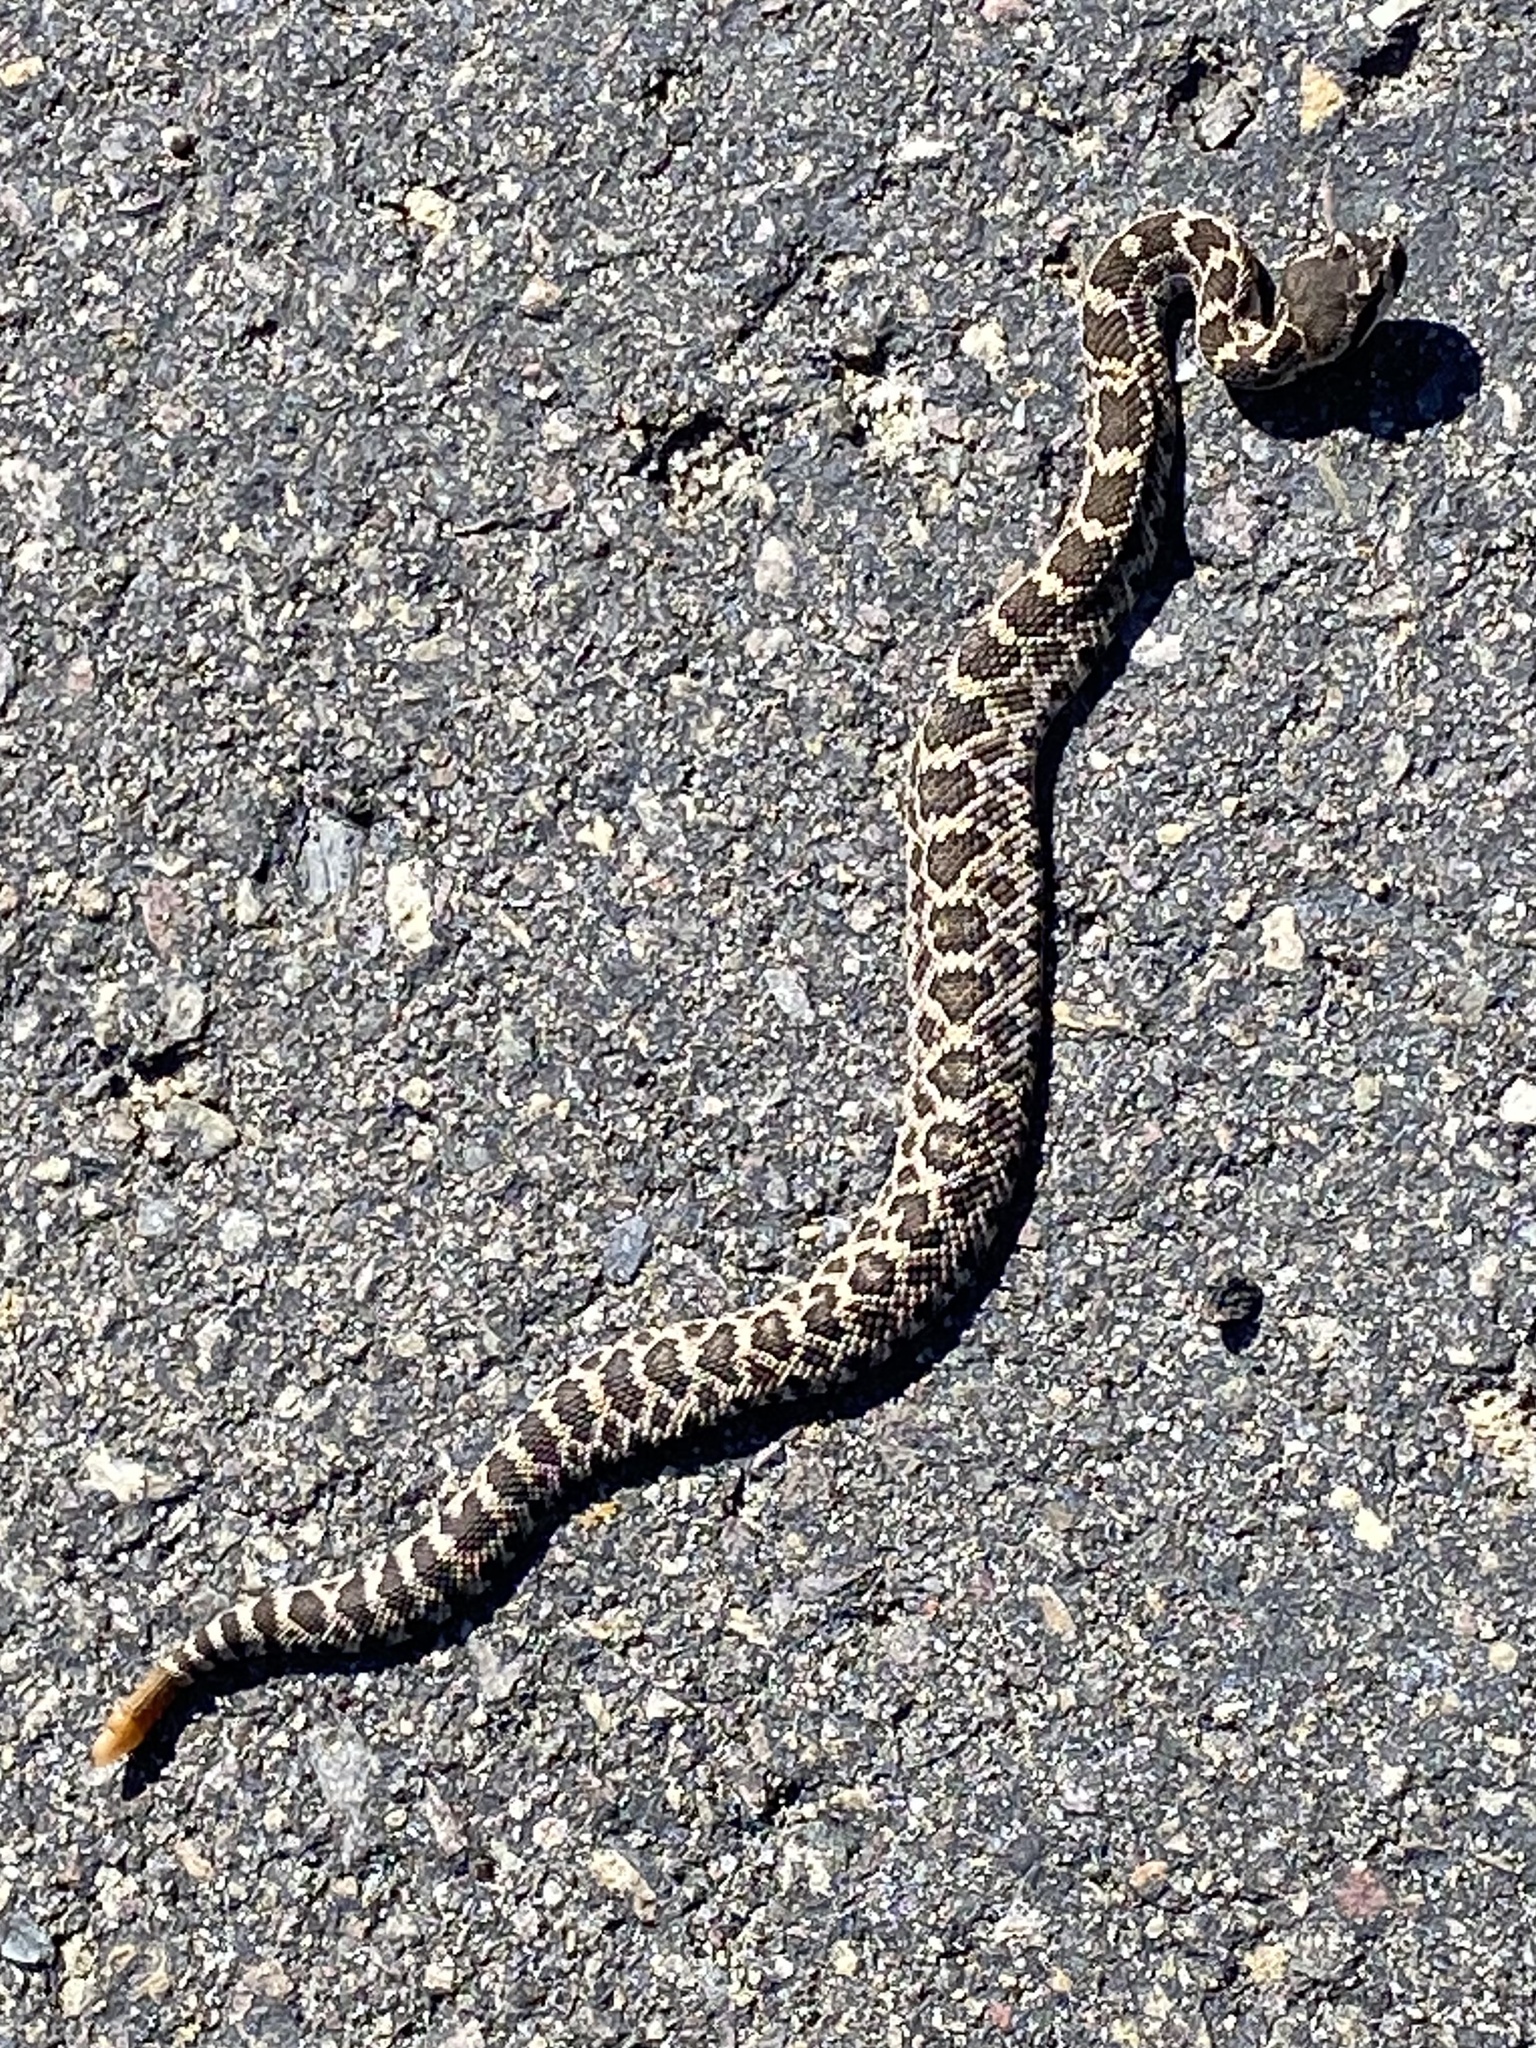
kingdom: Animalia
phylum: Chordata
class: Squamata
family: Viperidae
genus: Crotalus
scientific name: Crotalus oreganus
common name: Abyssus
